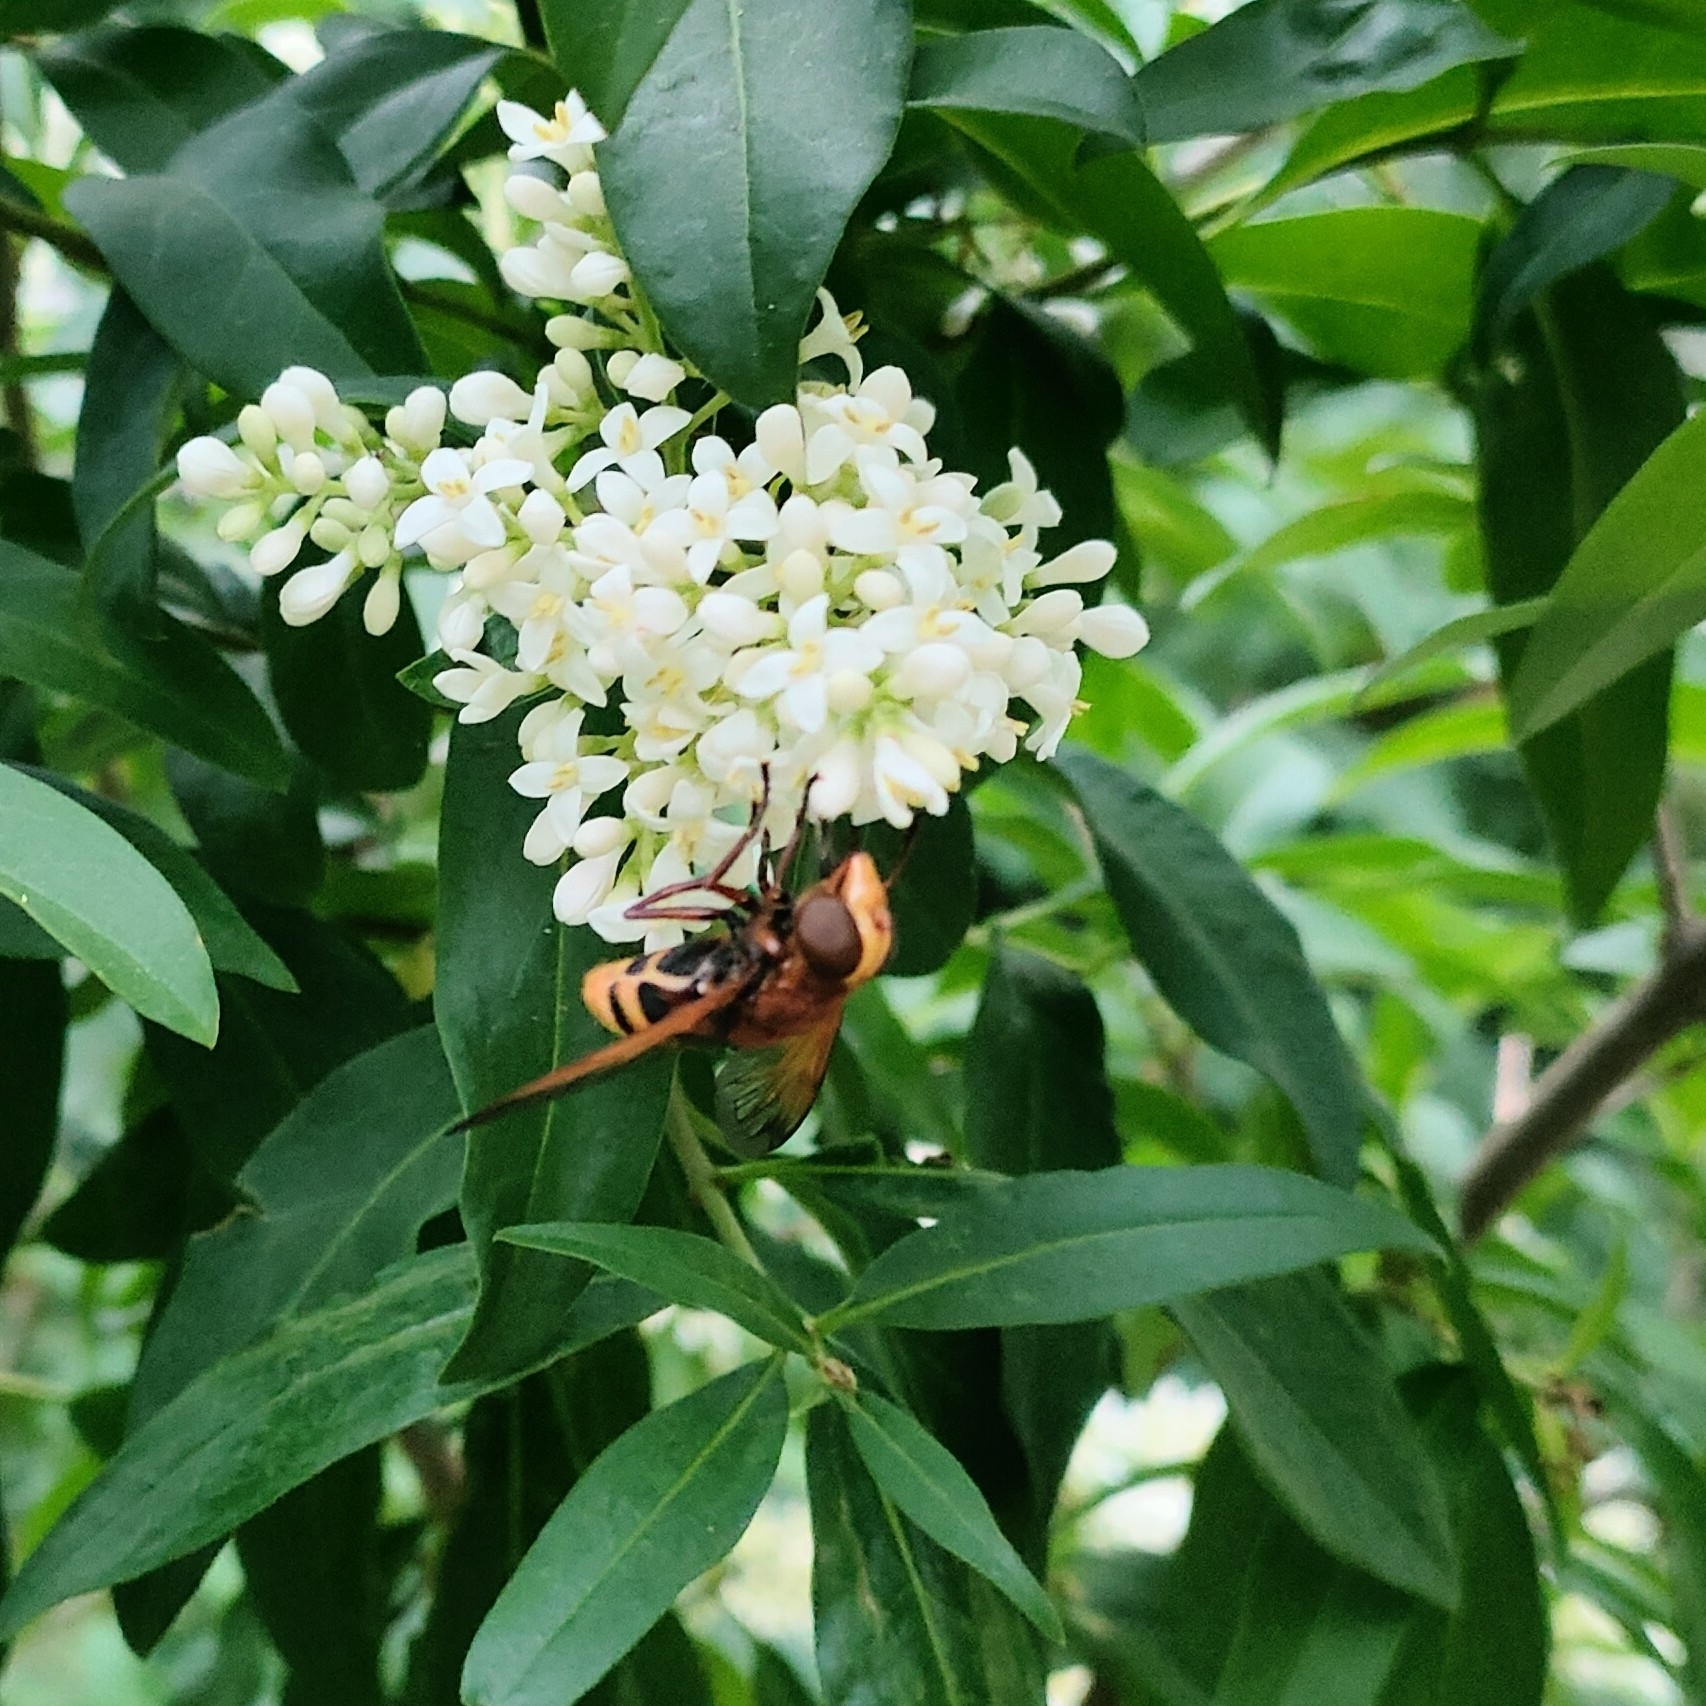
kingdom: Animalia
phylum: Arthropoda
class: Insecta
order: Diptera
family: Syrphidae
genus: Volucella
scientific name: Volucella zonaria
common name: Hornet hoverfly
